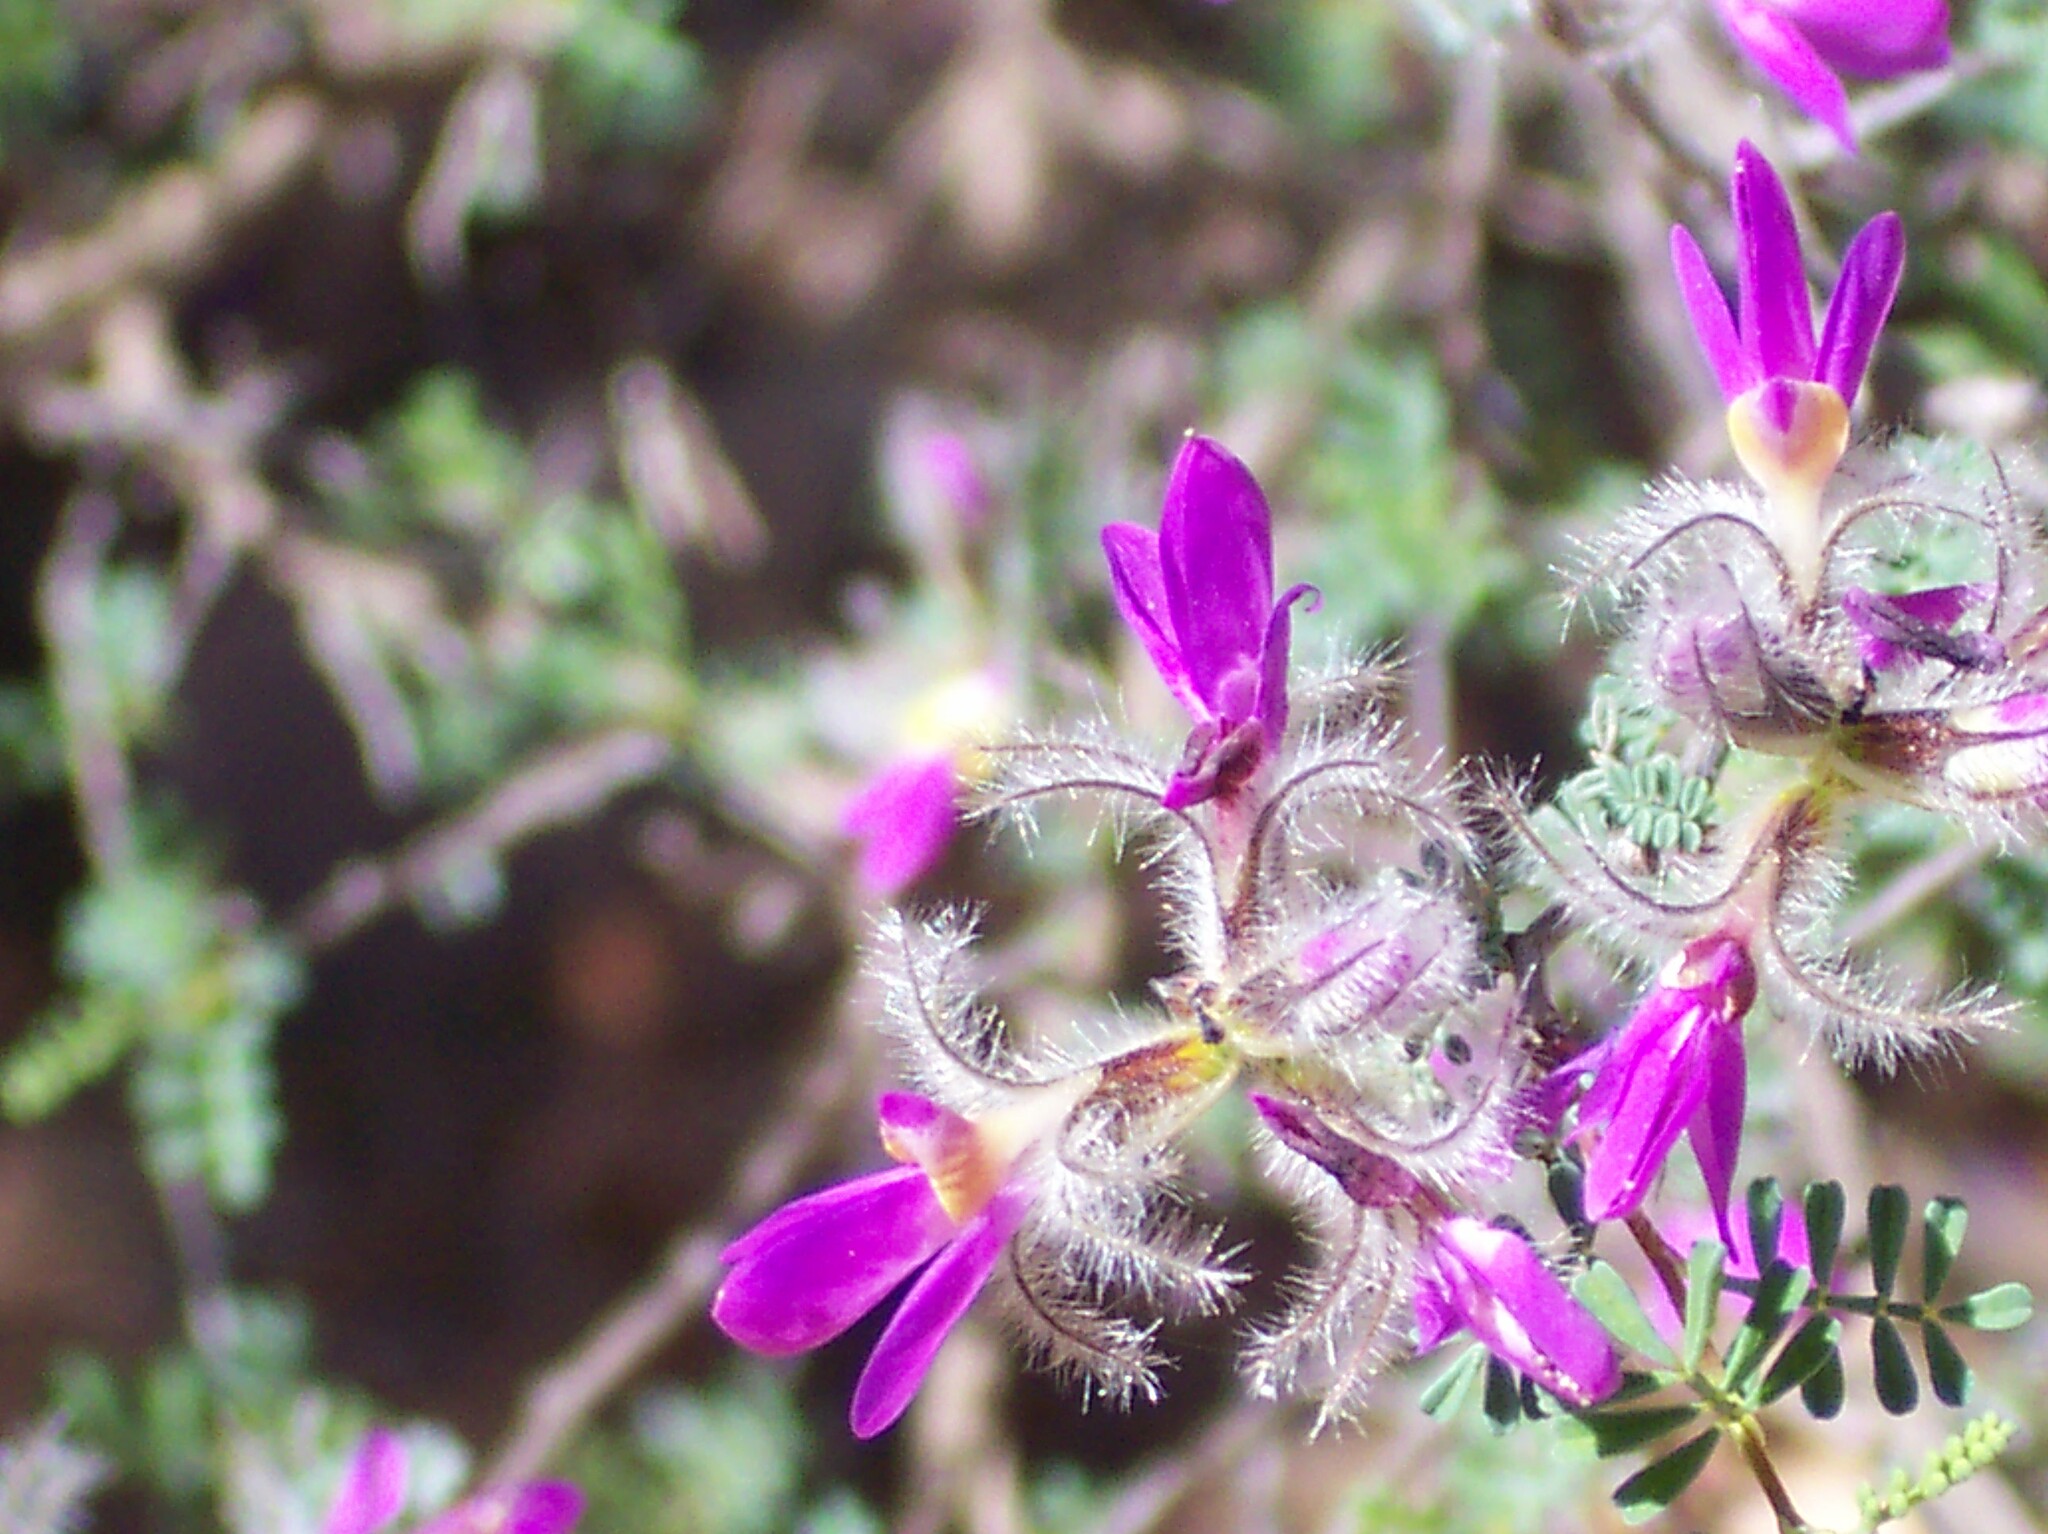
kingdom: Plantae
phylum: Tracheophyta
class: Magnoliopsida
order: Fabales
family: Fabaceae
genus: Dalea
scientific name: Dalea formosa
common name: Feather-plume dalea
